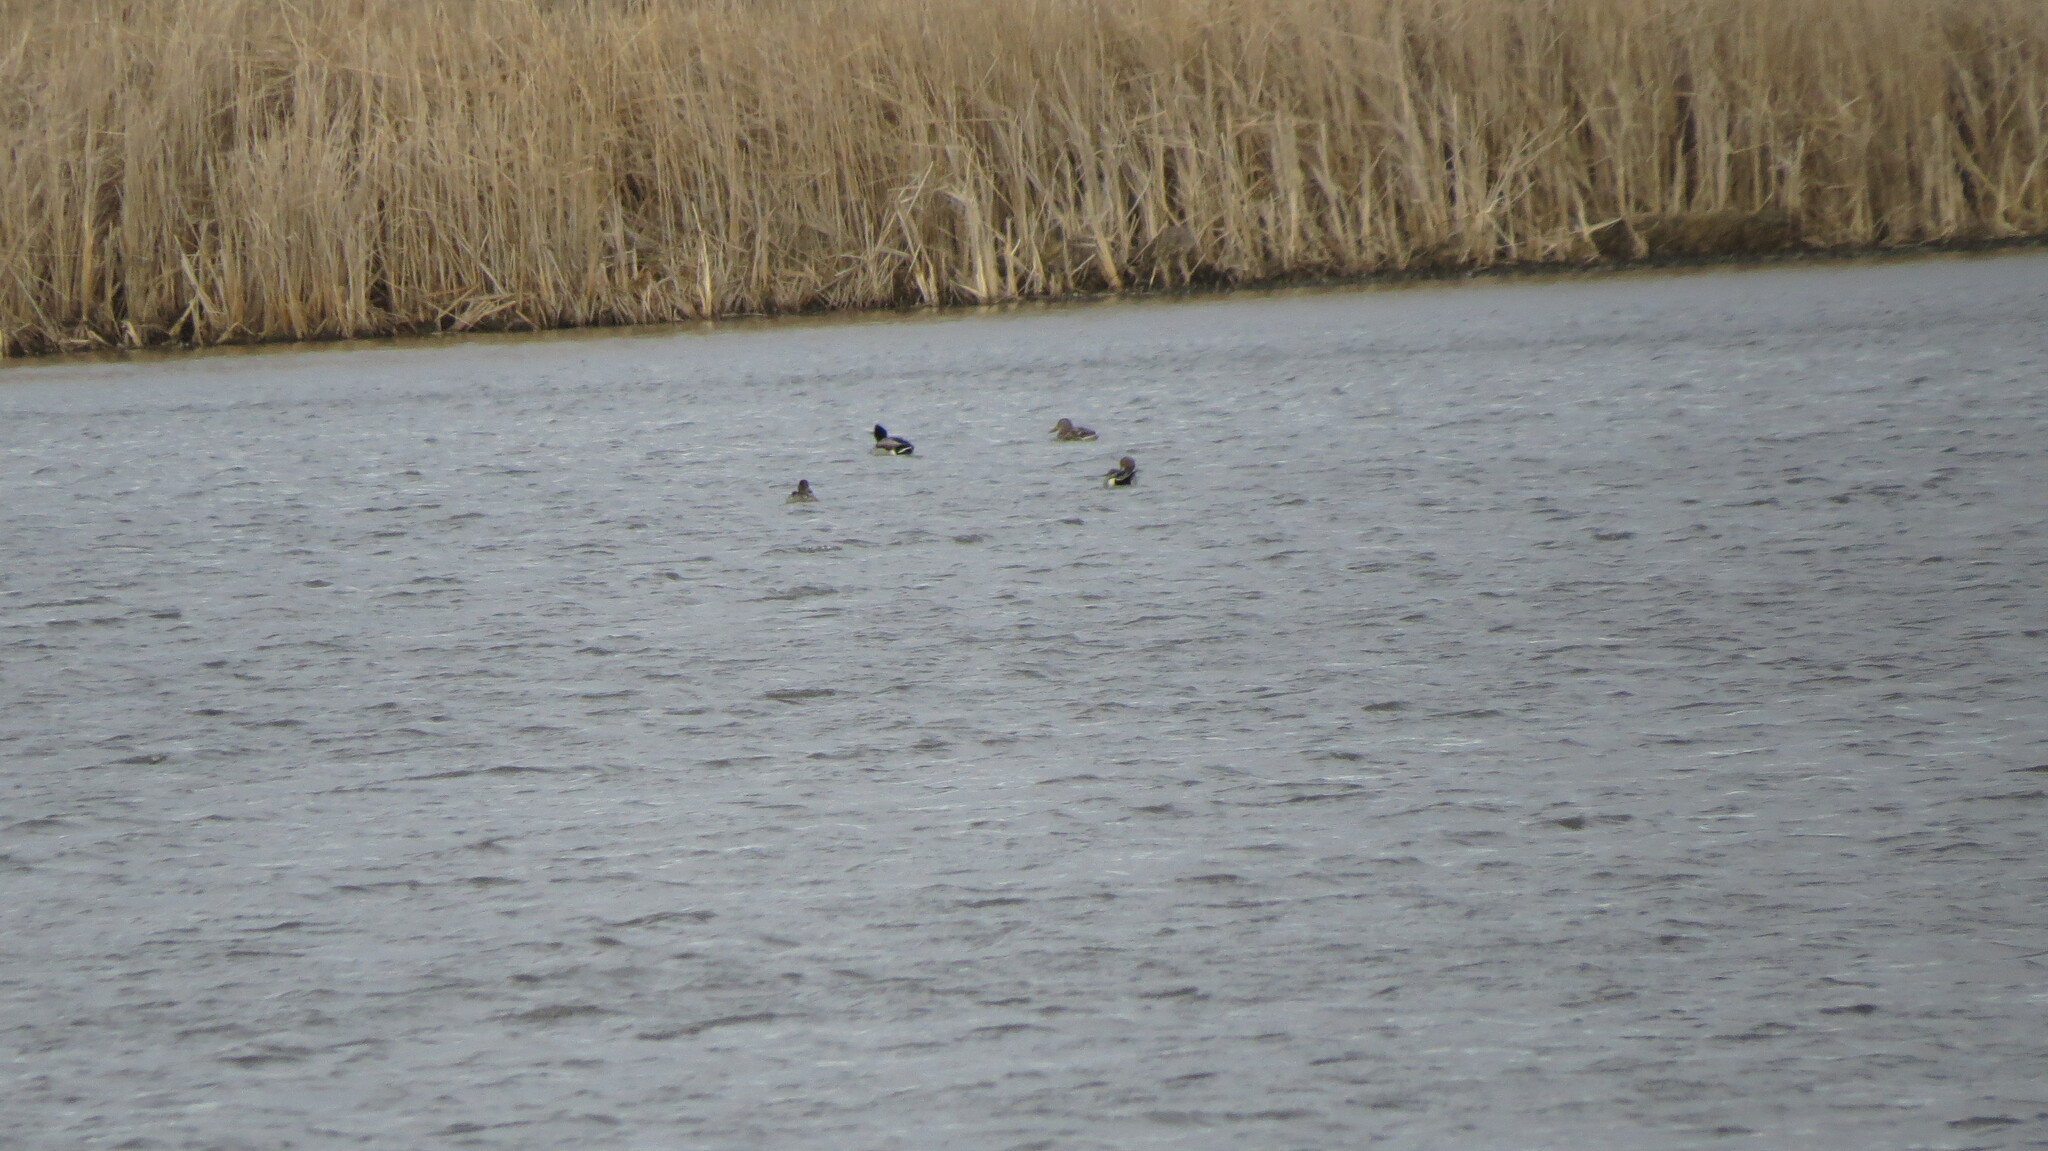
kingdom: Animalia
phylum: Chordata
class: Aves
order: Anseriformes
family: Anatidae
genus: Anas
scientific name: Anas acuta
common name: Northern pintail
